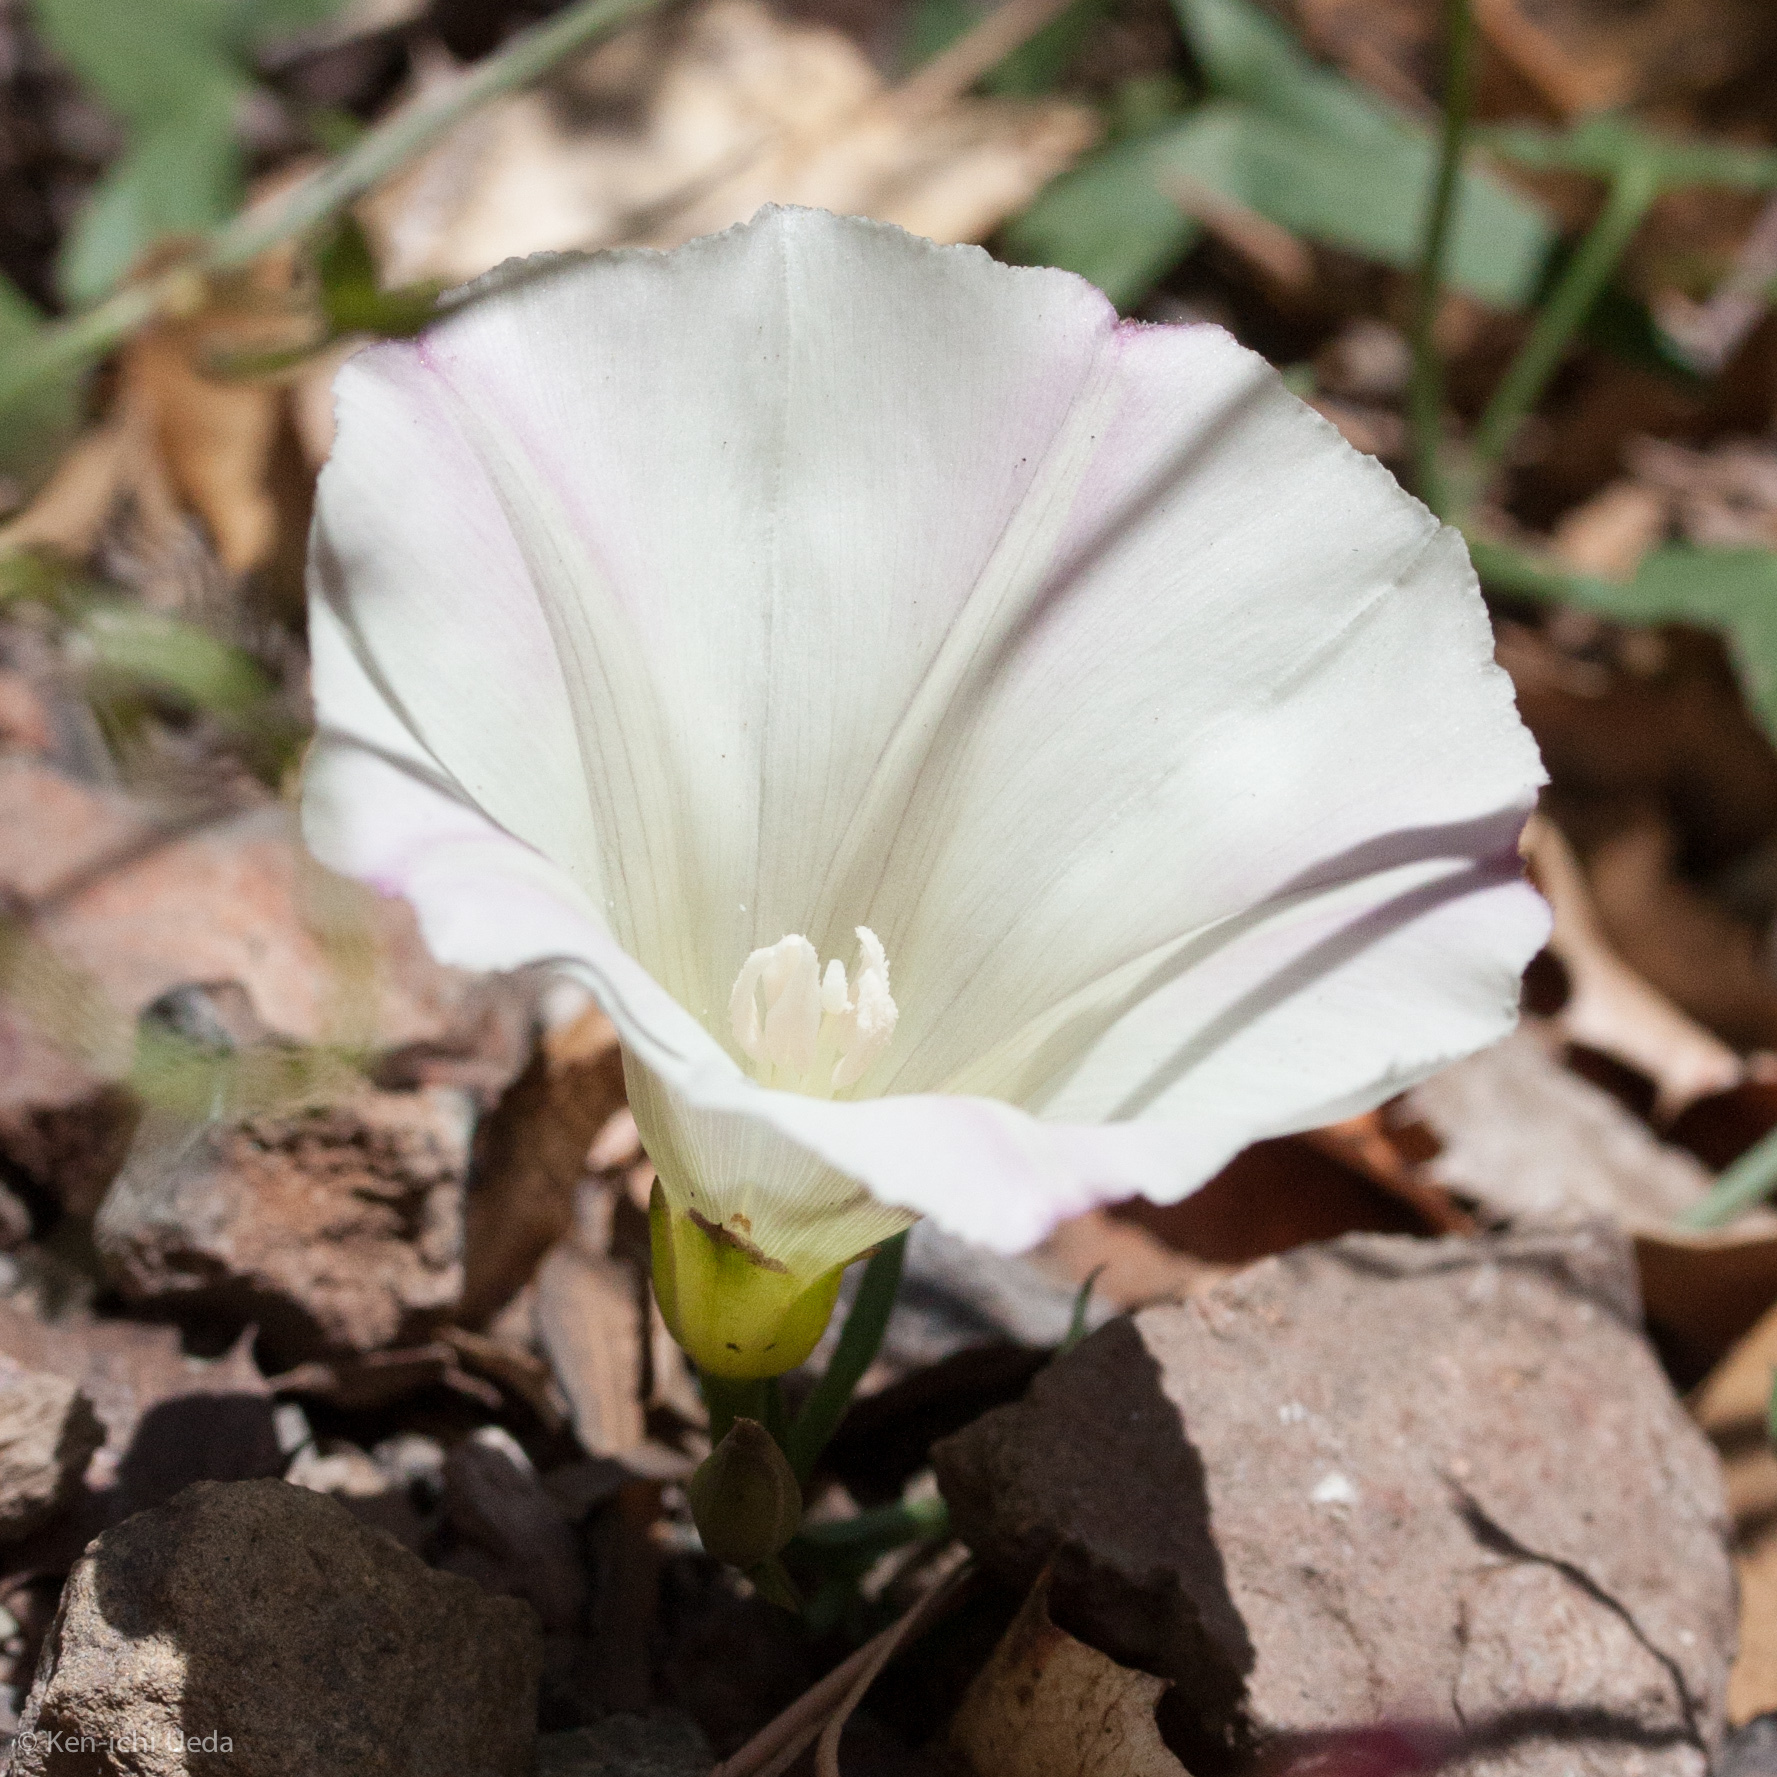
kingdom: Plantae
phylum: Tracheophyta
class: Magnoliopsida
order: Solanales
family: Convolvulaceae
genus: Calystegia
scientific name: Calystegia purpurata
